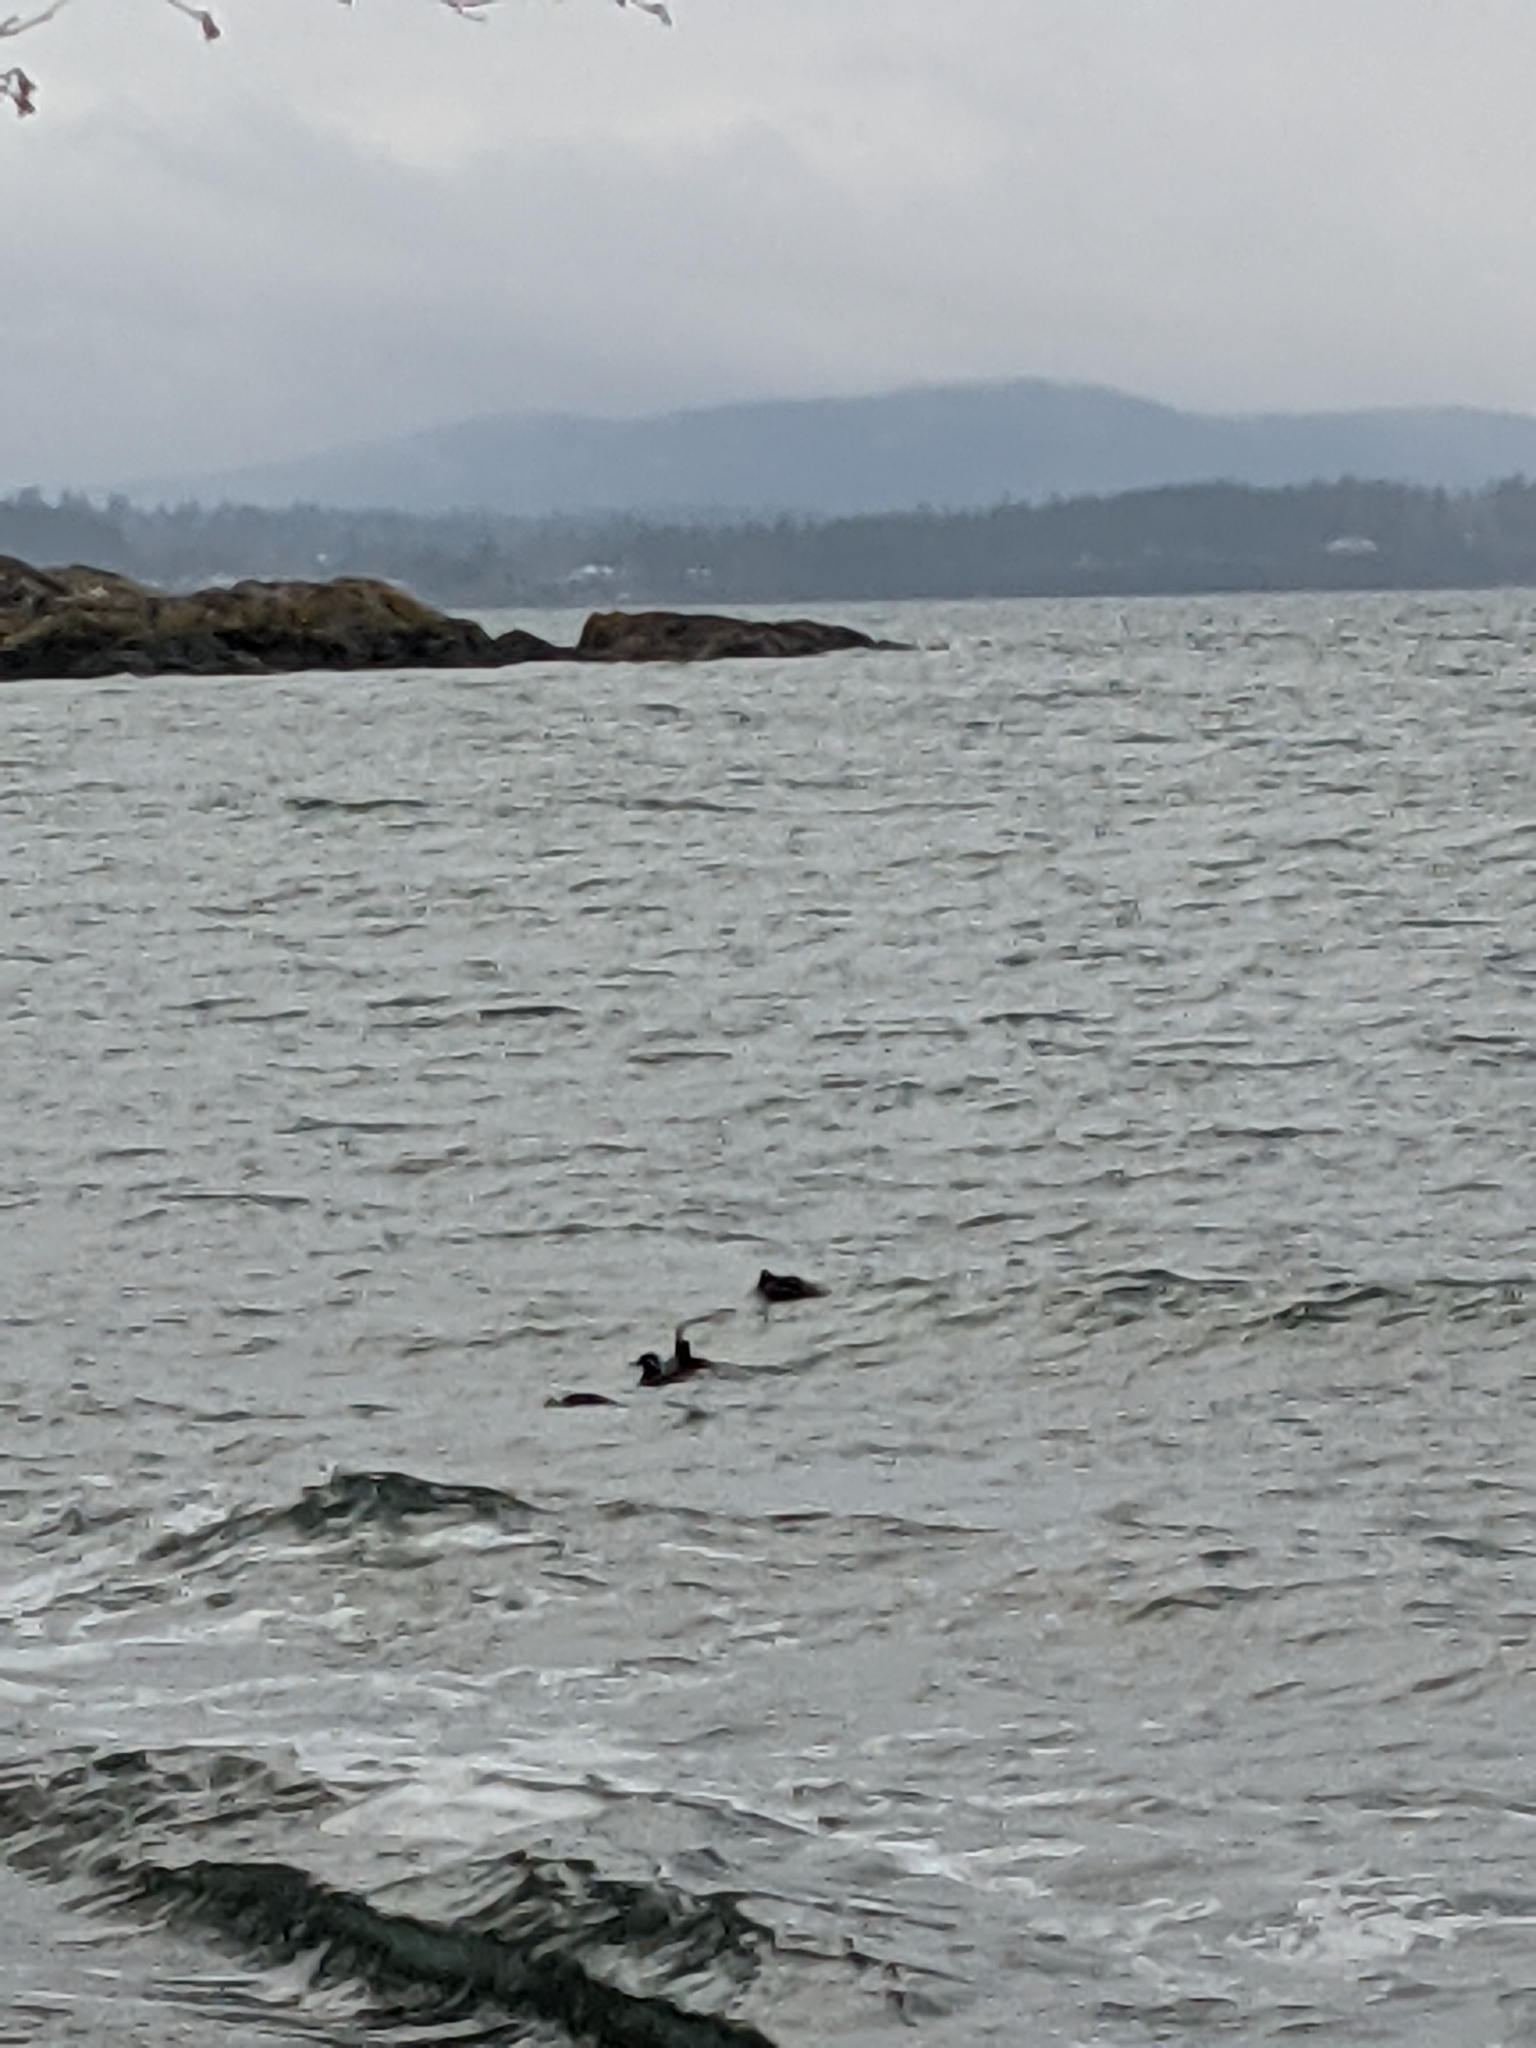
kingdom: Animalia
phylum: Chordata
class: Aves
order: Anseriformes
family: Anatidae
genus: Lophodytes
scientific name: Lophodytes cucullatus
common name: Hooded merganser
